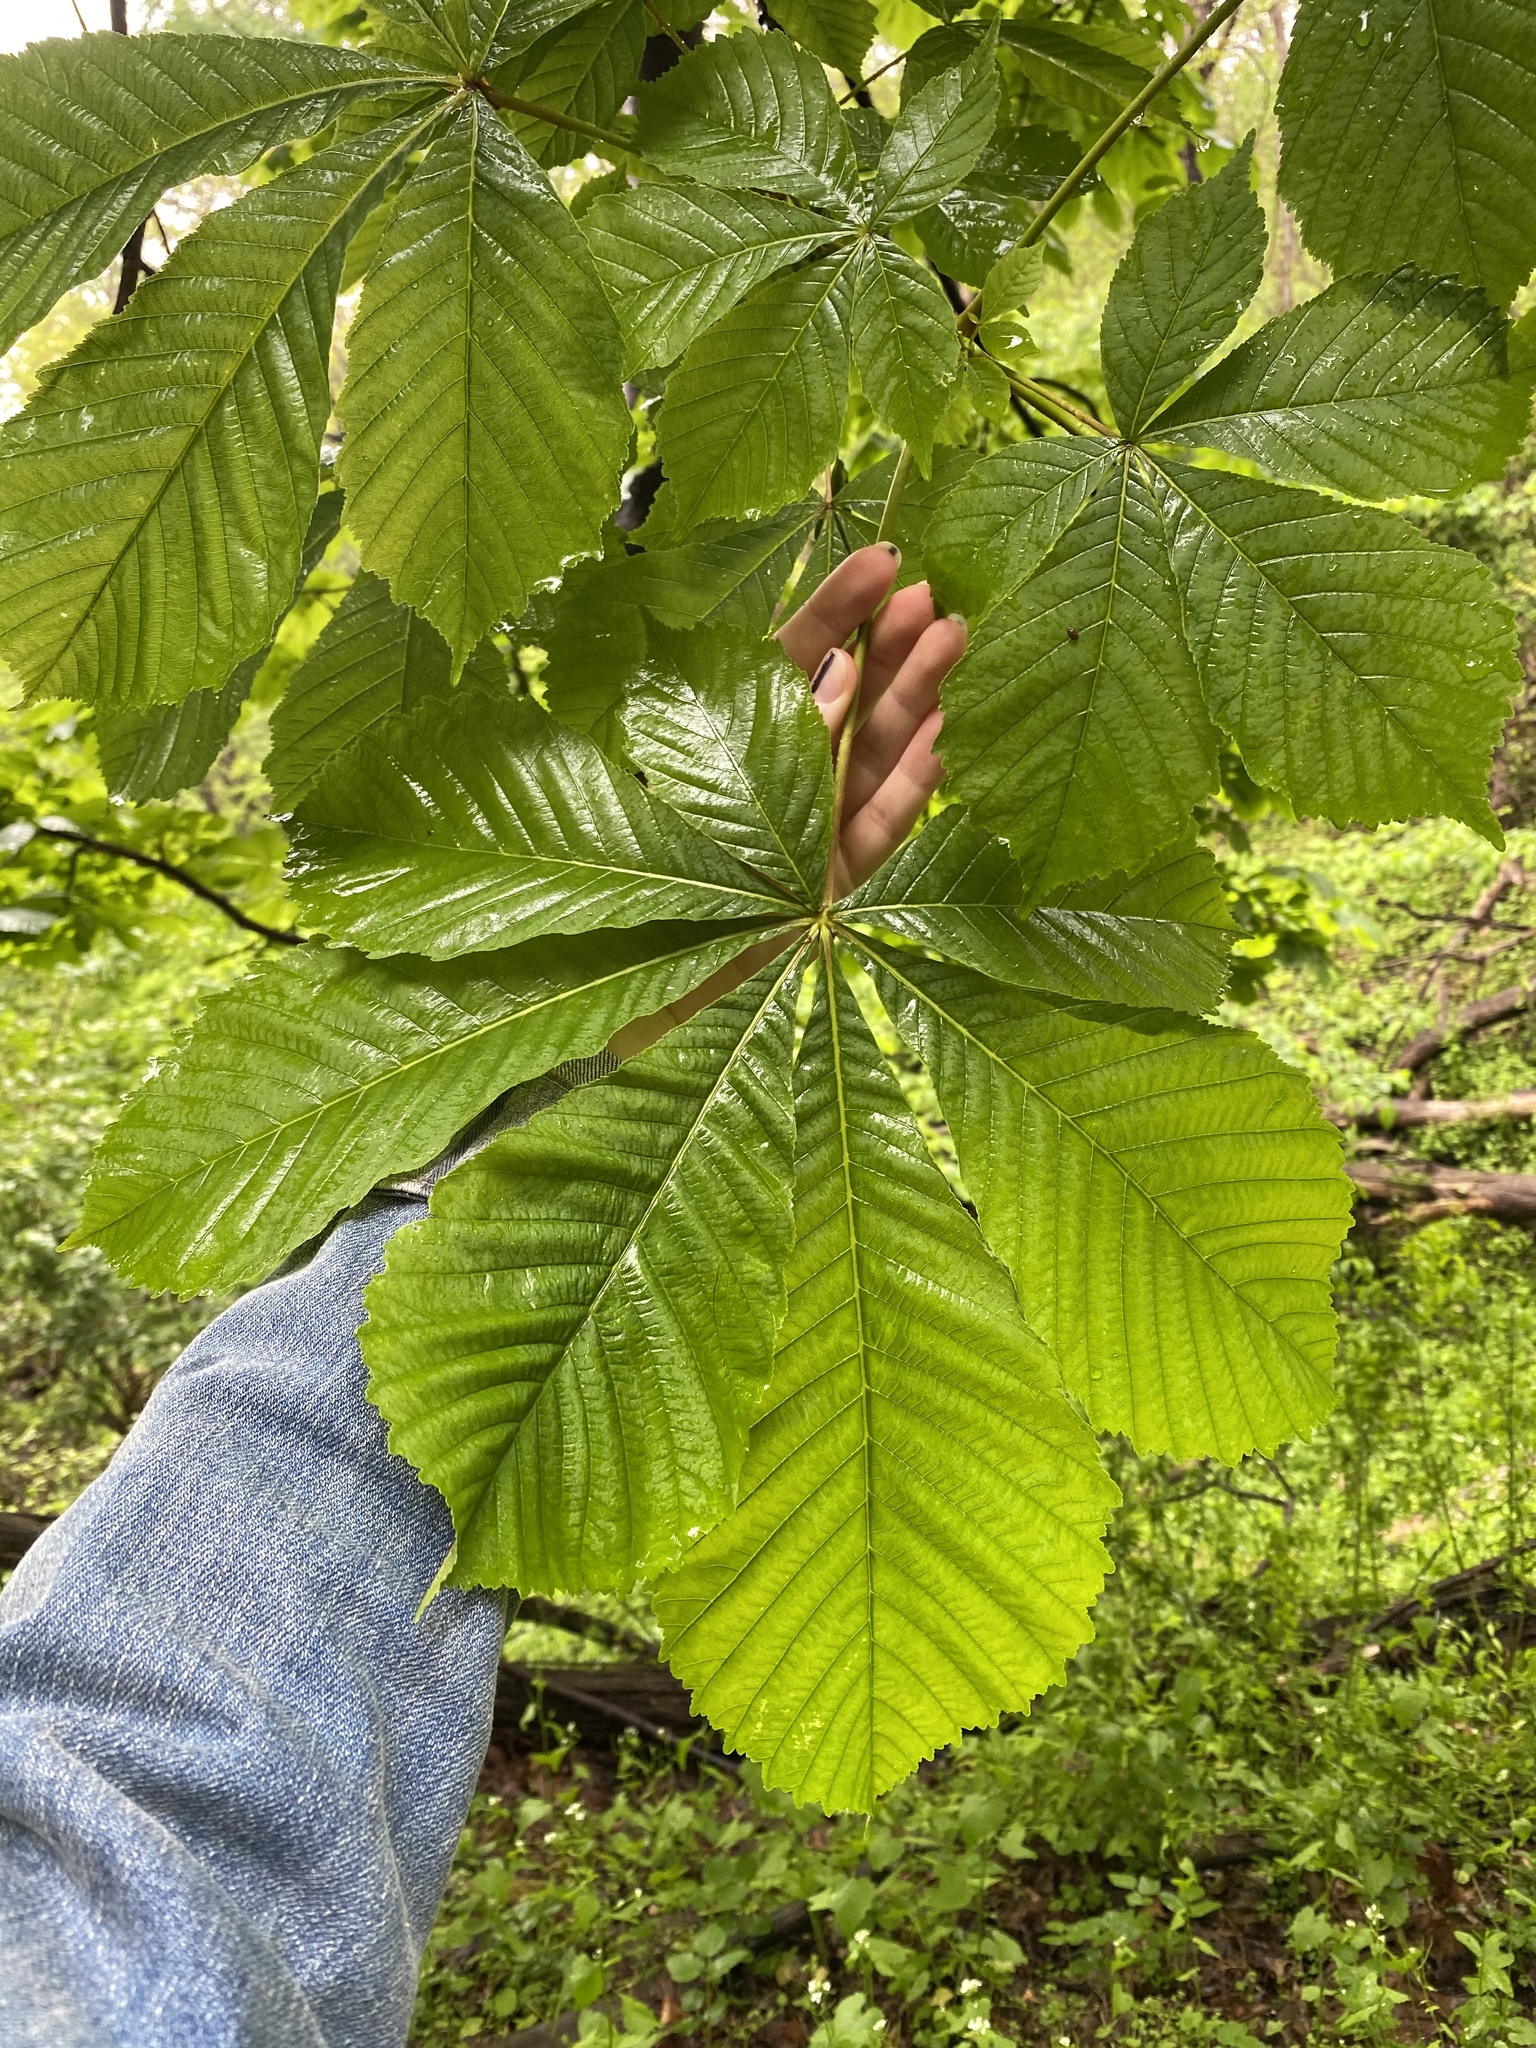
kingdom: Plantae
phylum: Tracheophyta
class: Magnoliopsida
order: Sapindales
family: Sapindaceae
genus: Aesculus
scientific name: Aesculus hippocastanum
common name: Horse-chestnut
